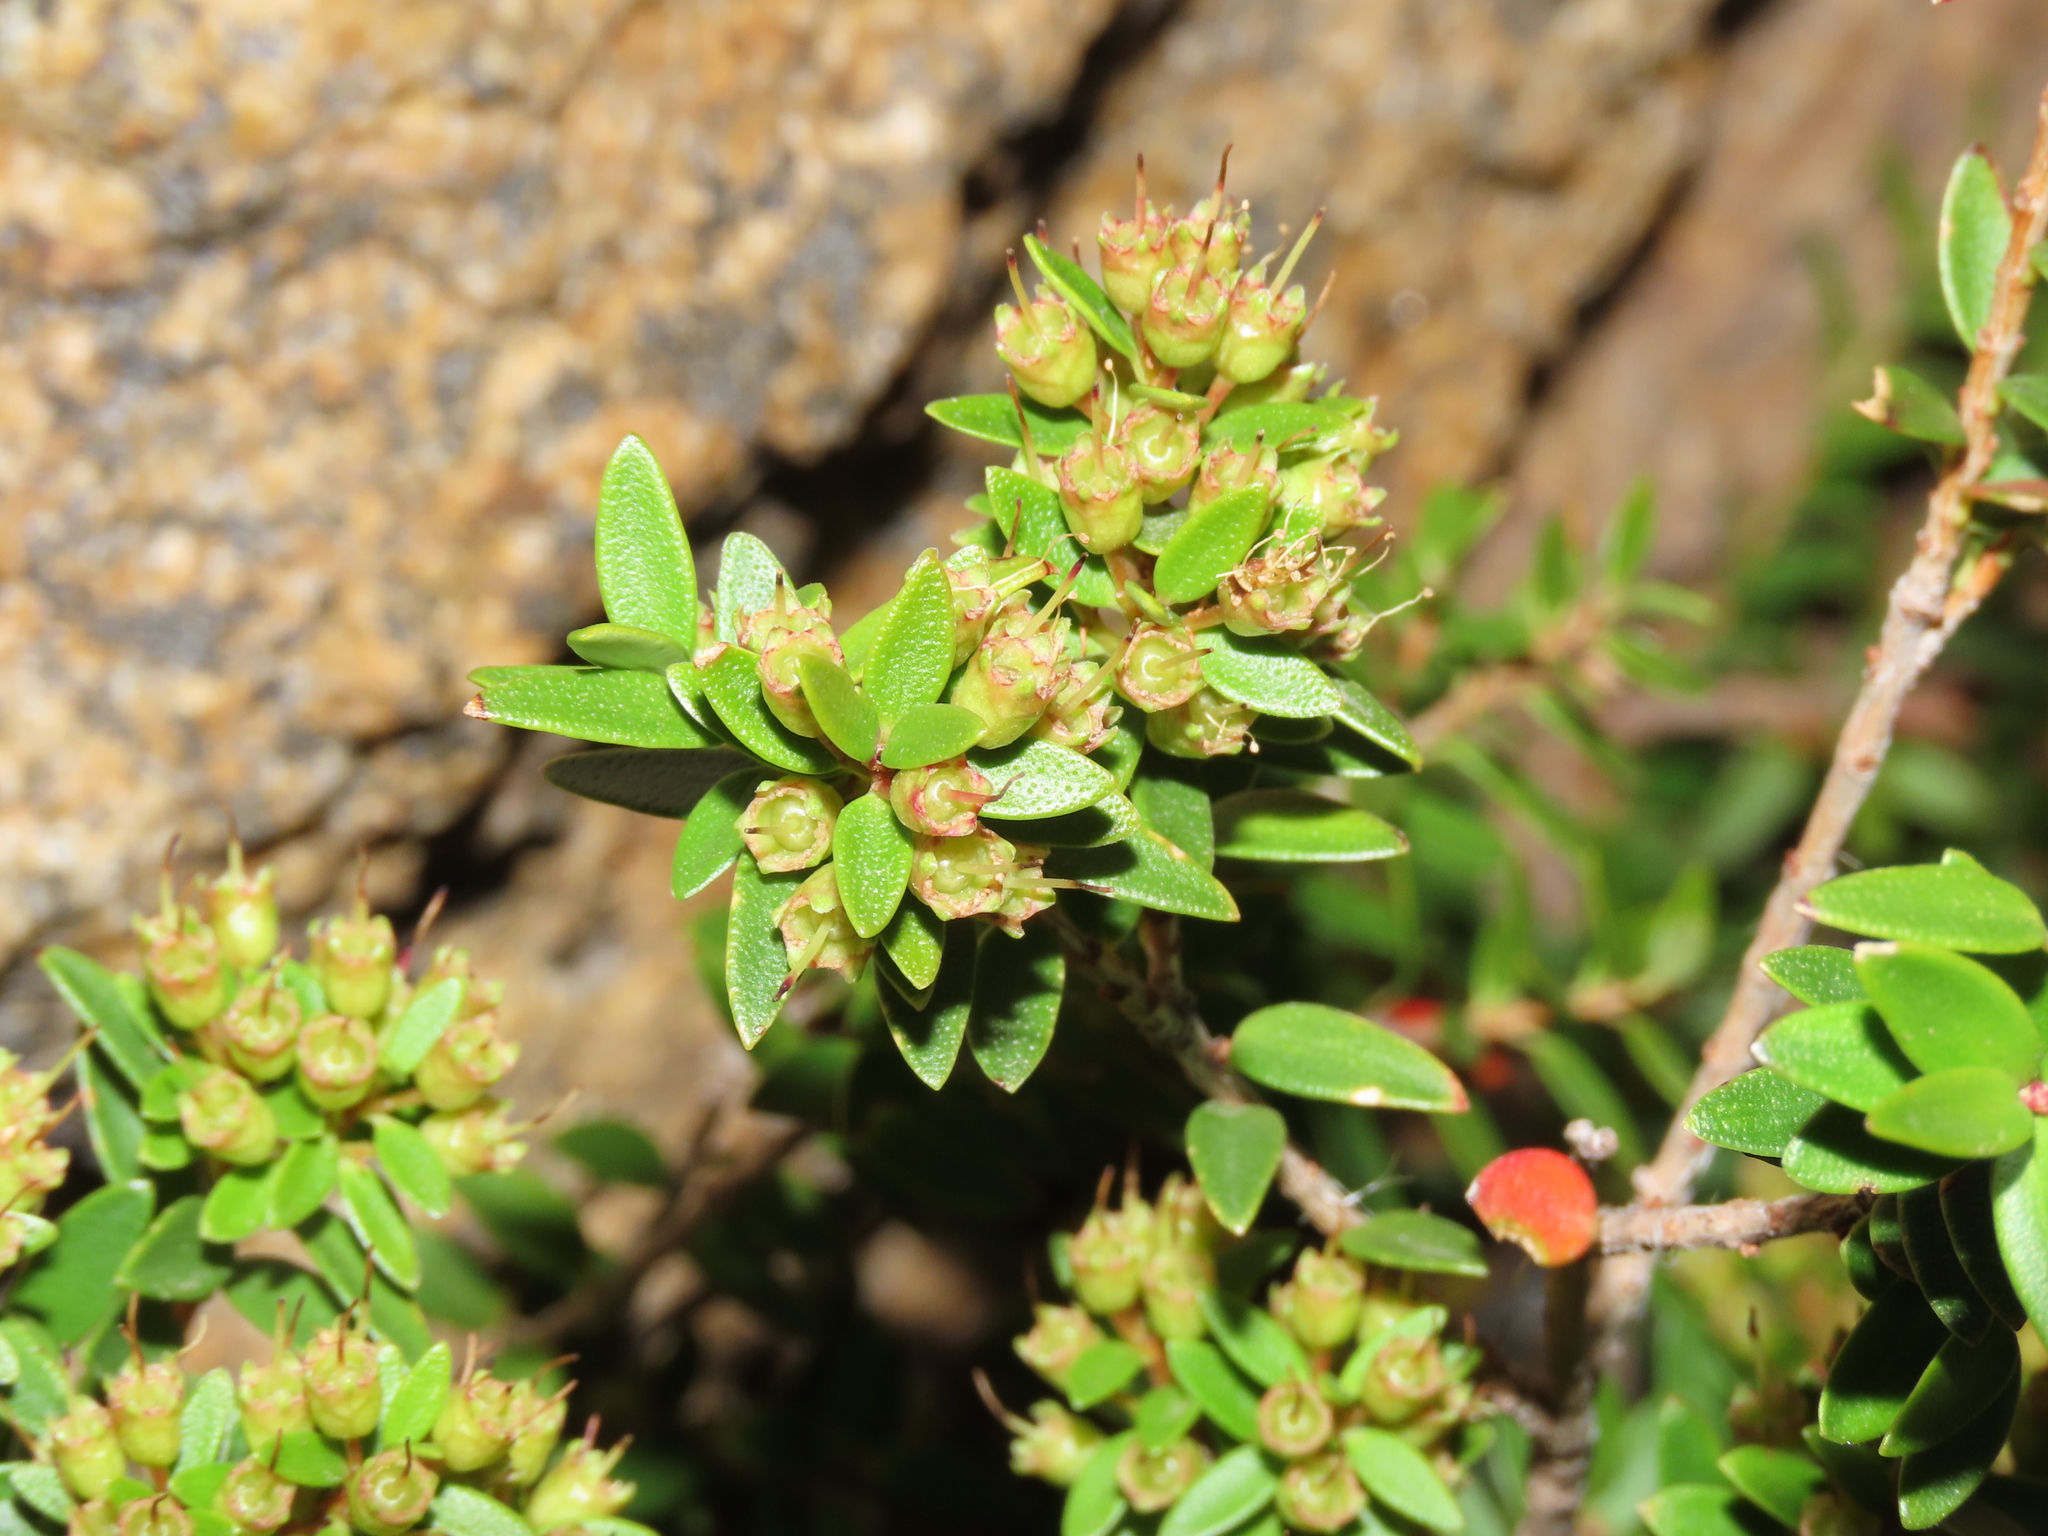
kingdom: Plantae
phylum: Tracheophyta
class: Magnoliopsida
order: Myrtales
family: Myrtaceae
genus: Tepualia
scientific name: Tepualia stipularis
